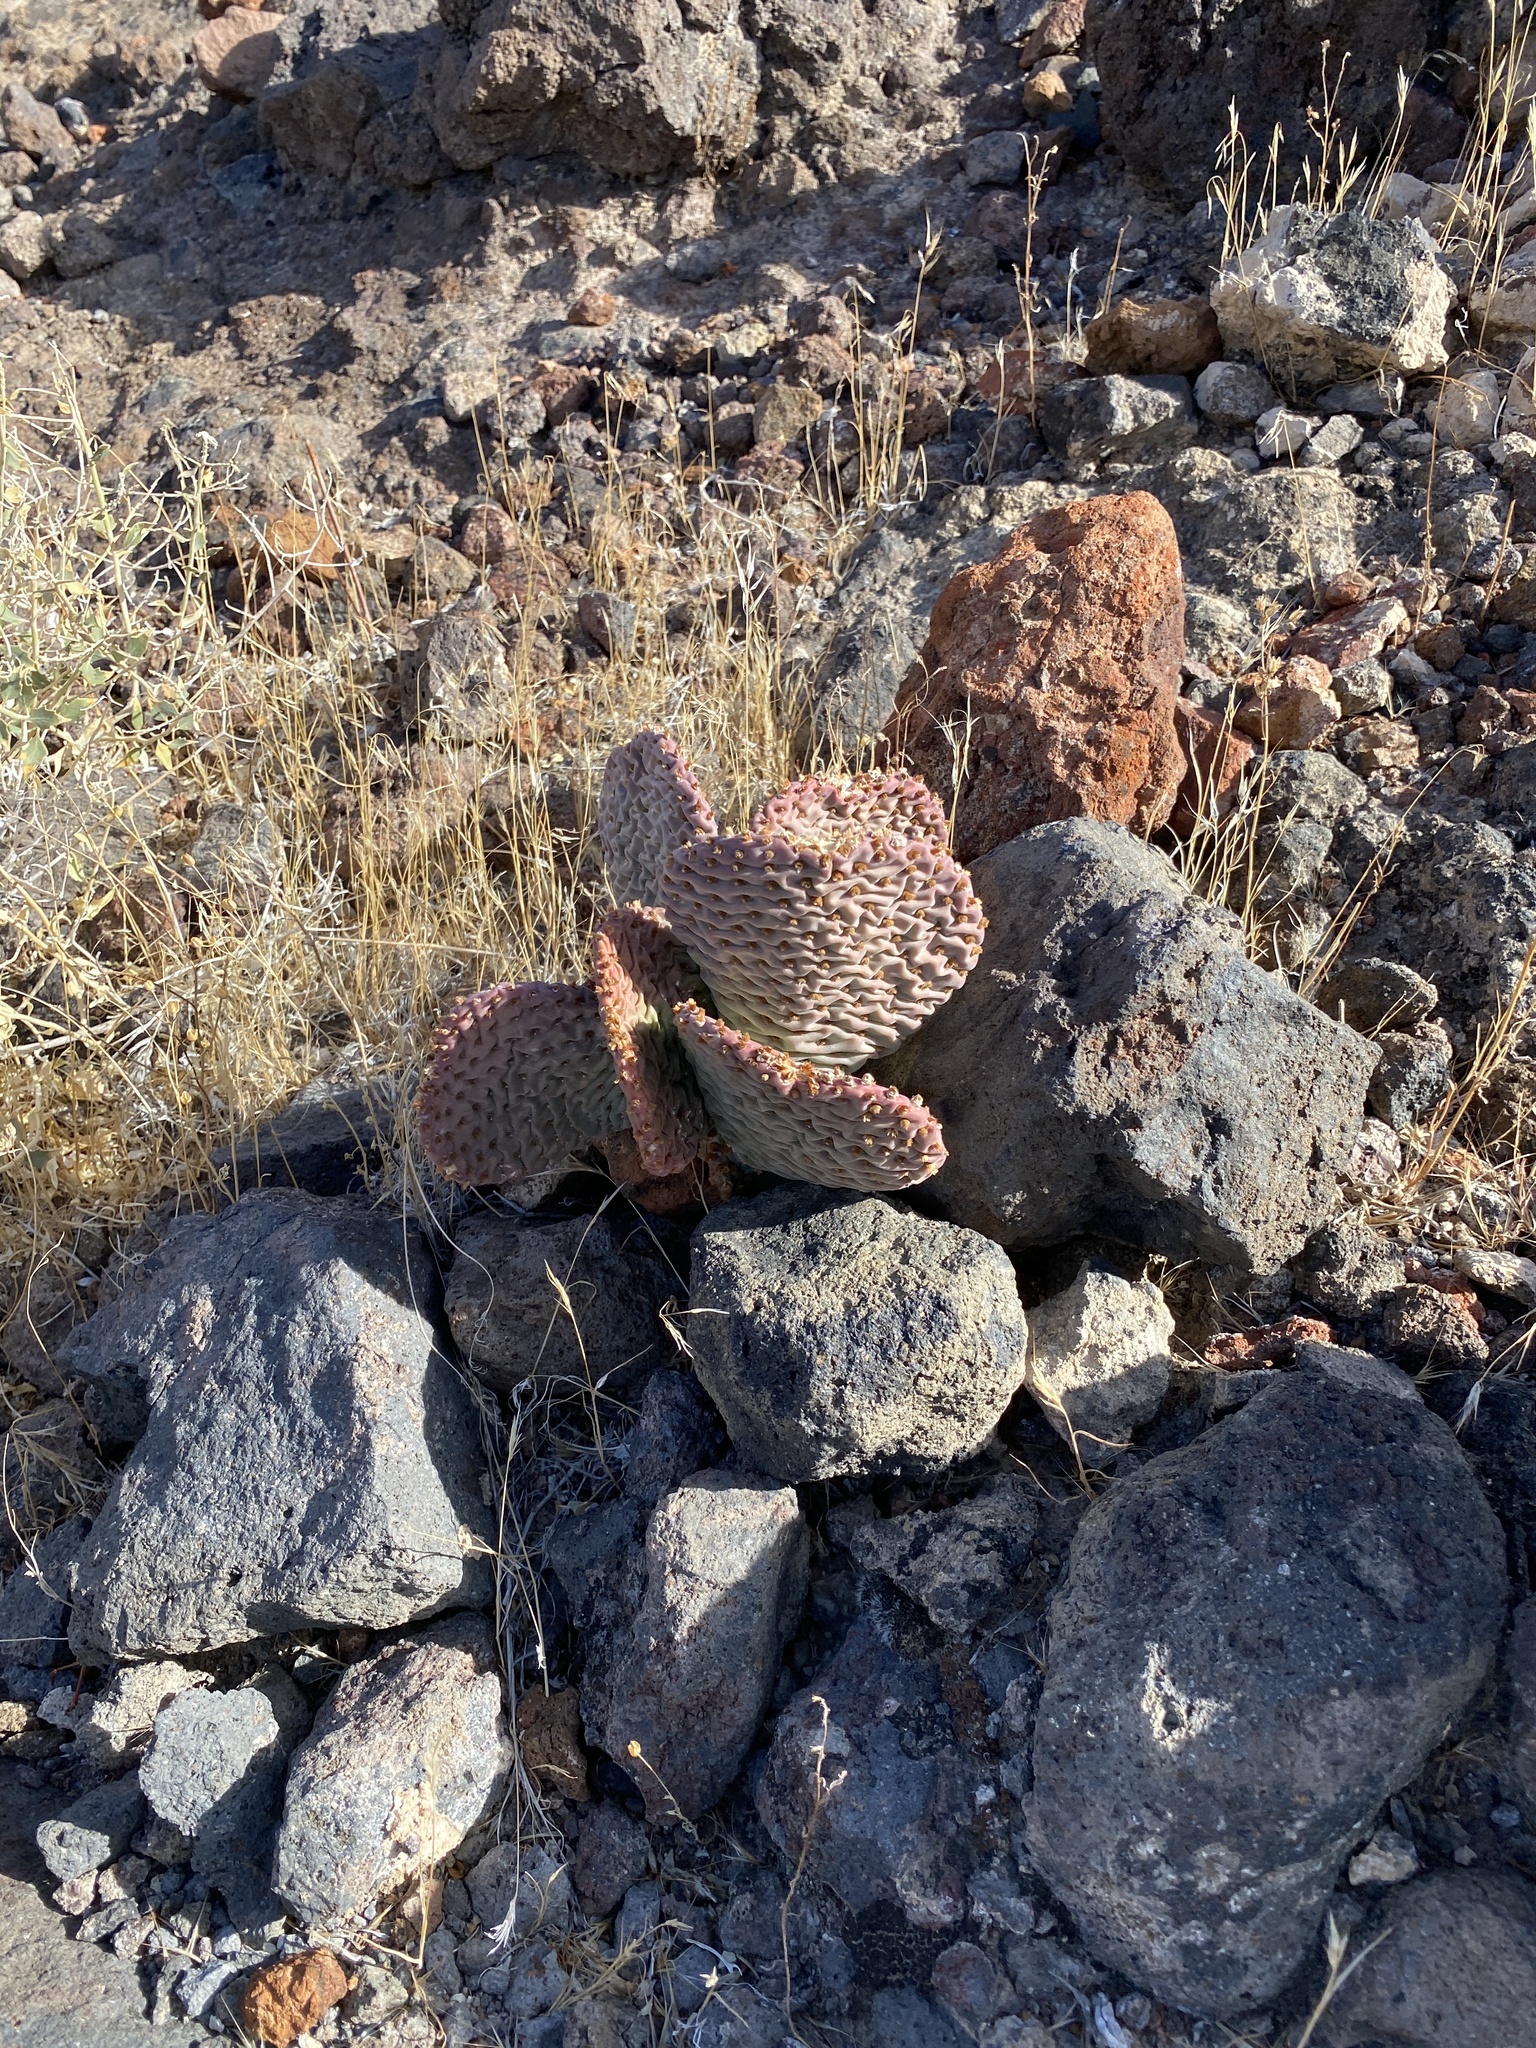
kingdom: Plantae
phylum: Tracheophyta
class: Magnoliopsida
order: Caryophyllales
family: Cactaceae
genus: Opuntia
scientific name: Opuntia basilaris
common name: Beavertail prickly-pear
